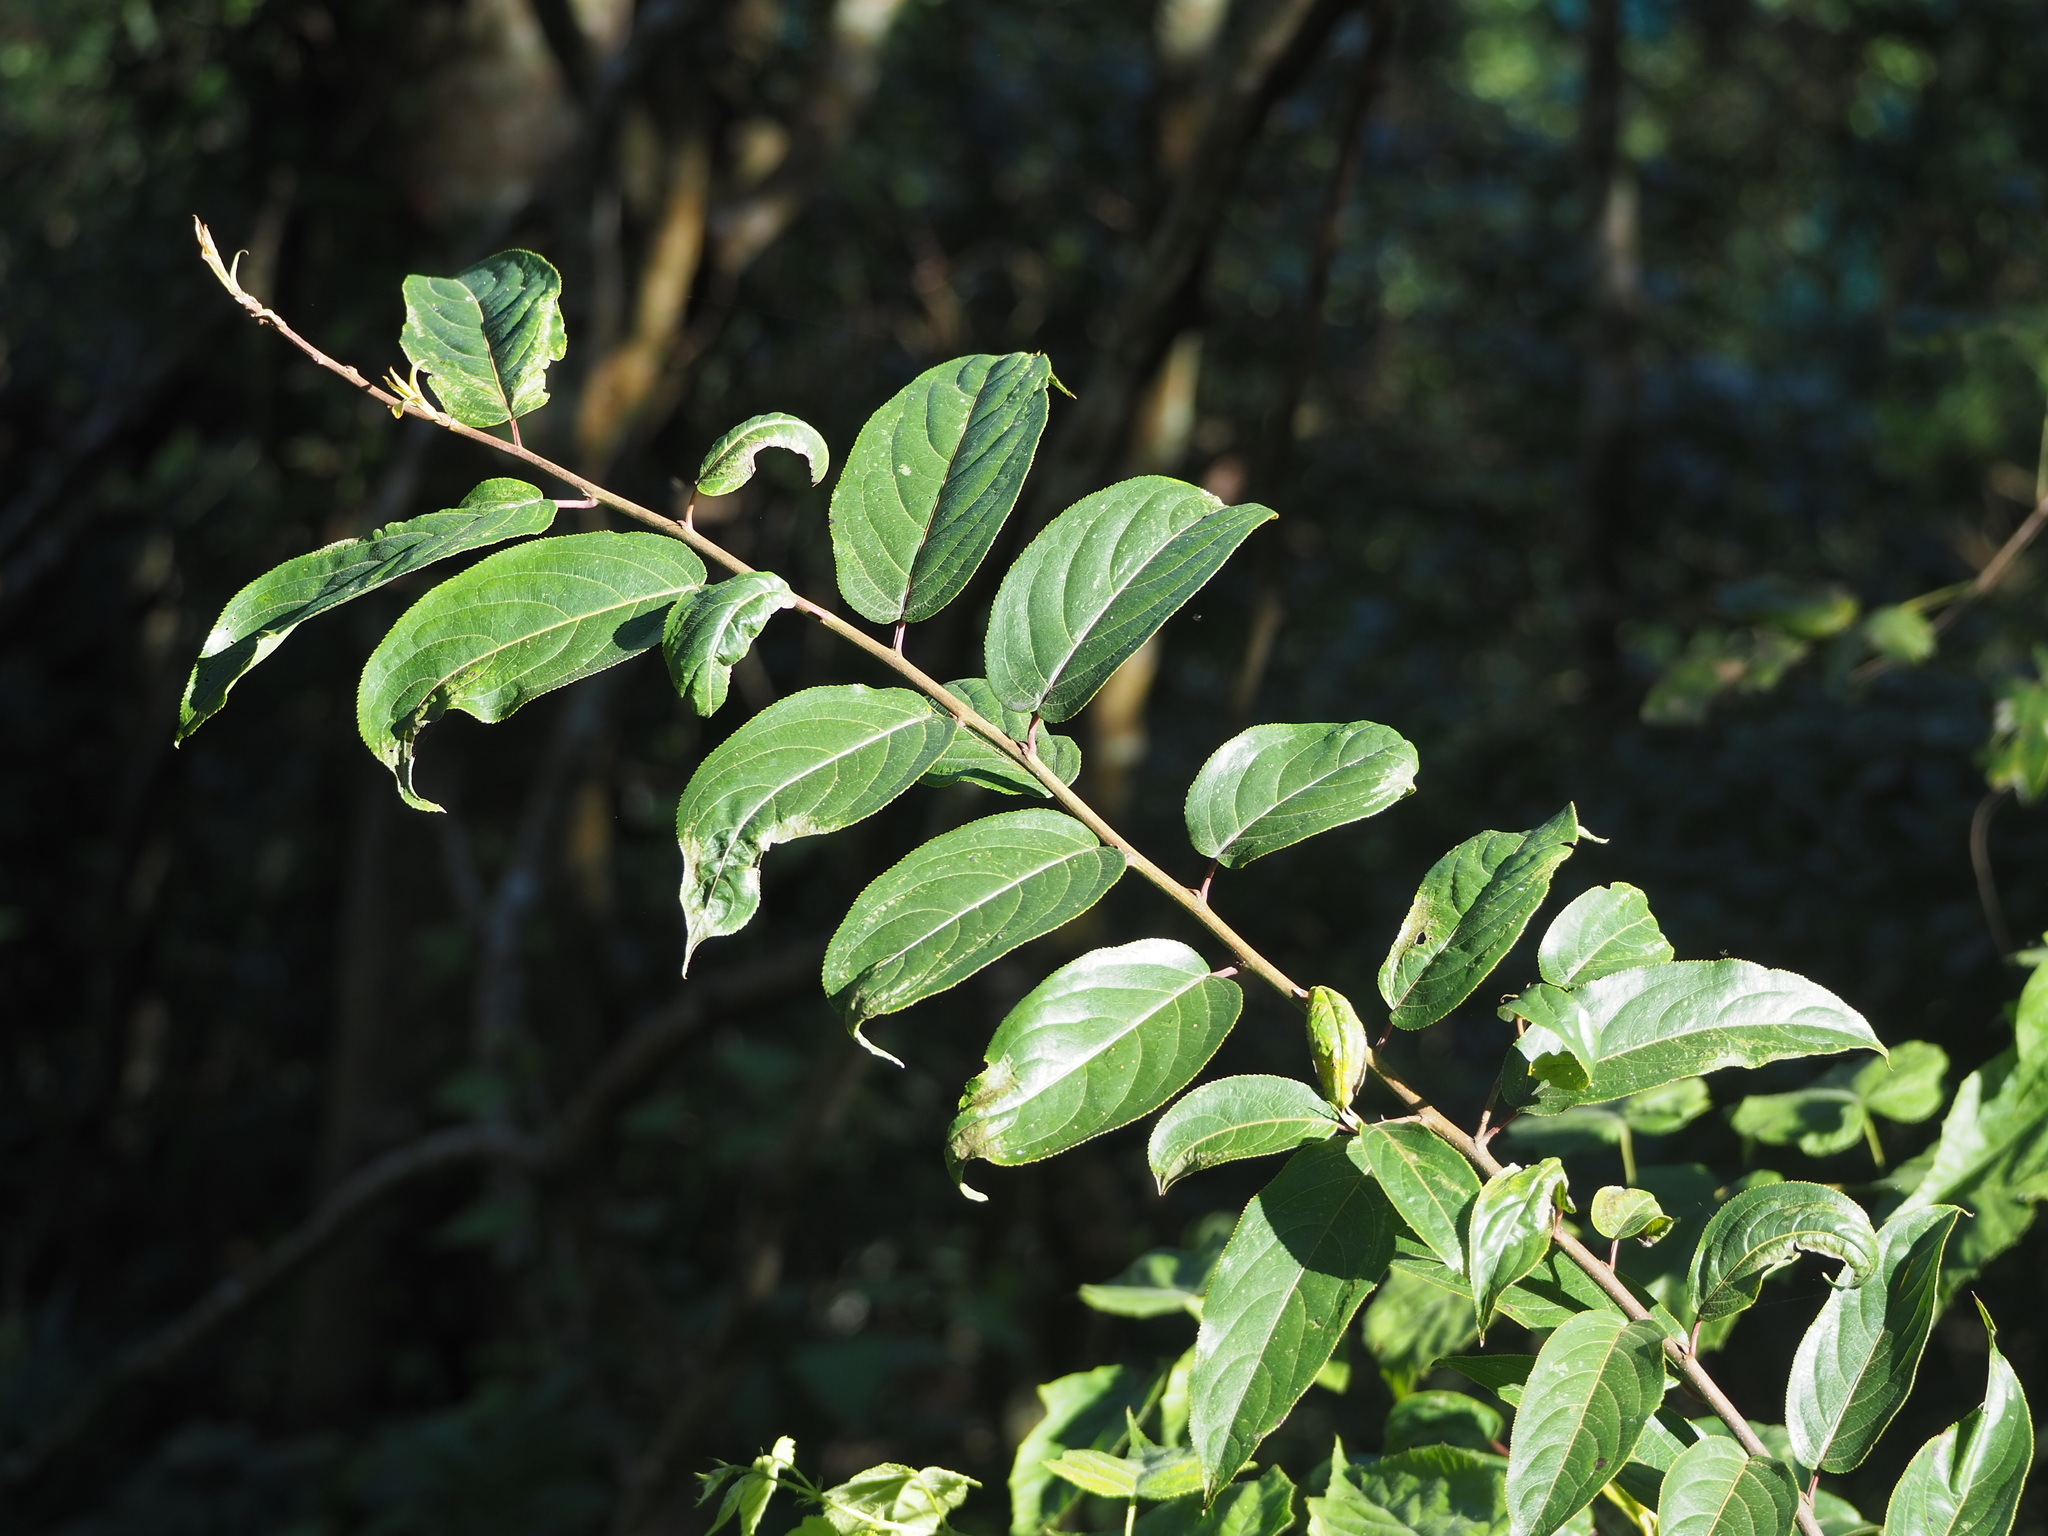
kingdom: Plantae
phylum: Tracheophyta
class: Magnoliopsida
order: Crossosomatales
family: Stachyuraceae
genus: Stachyurus
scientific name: Stachyurus himalaicus
